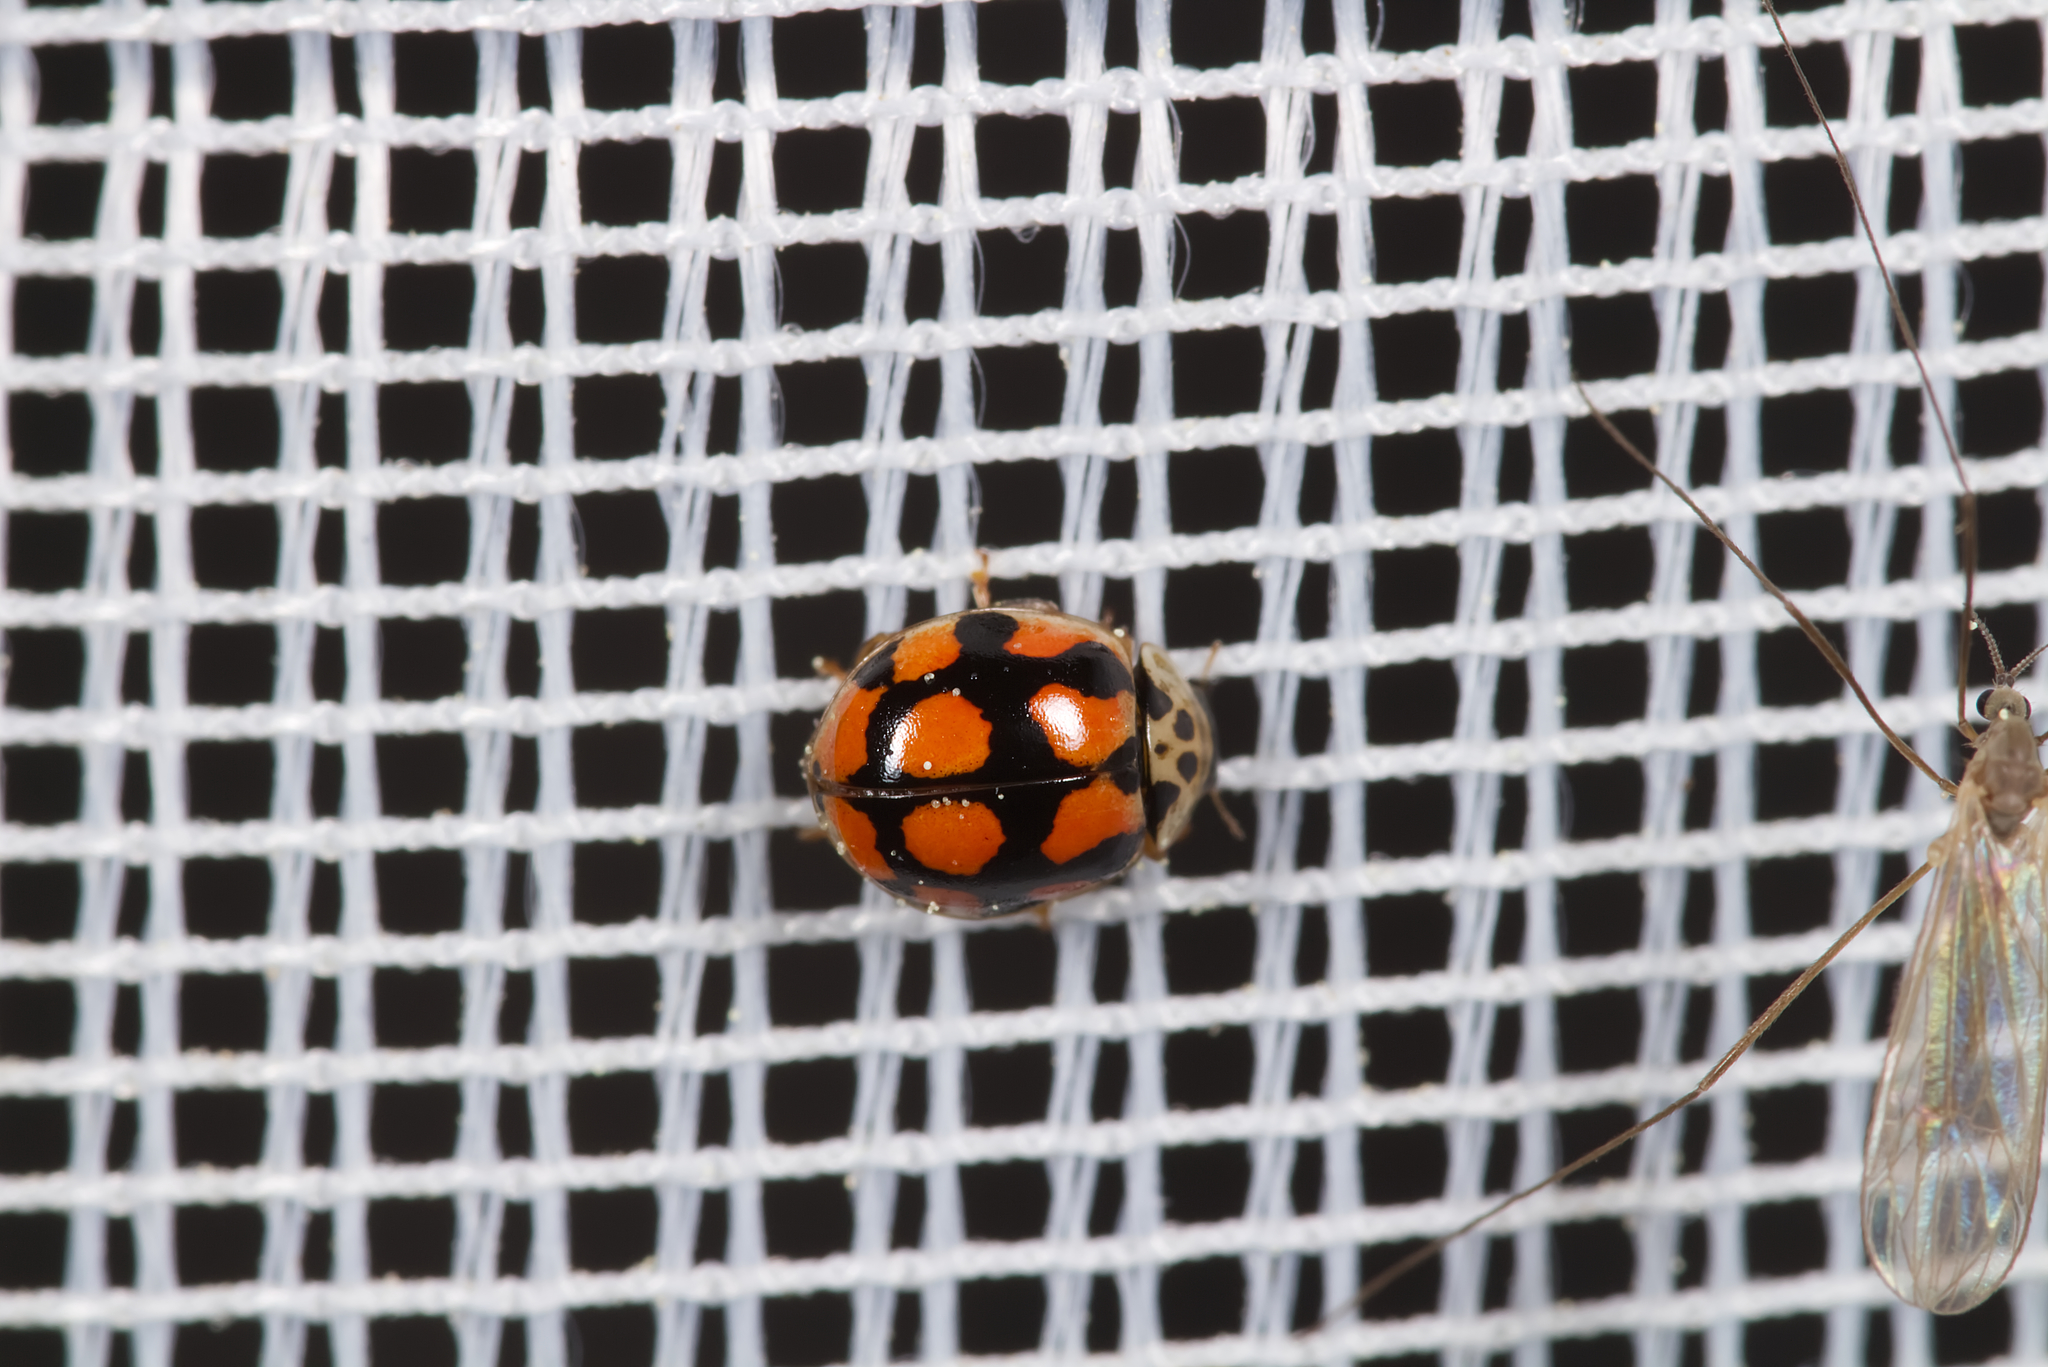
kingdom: Animalia
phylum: Arthropoda
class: Insecta
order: Coleoptera
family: Coccinellidae
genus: Adalia
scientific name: Adalia decempunctata
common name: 10-spot ladybird
